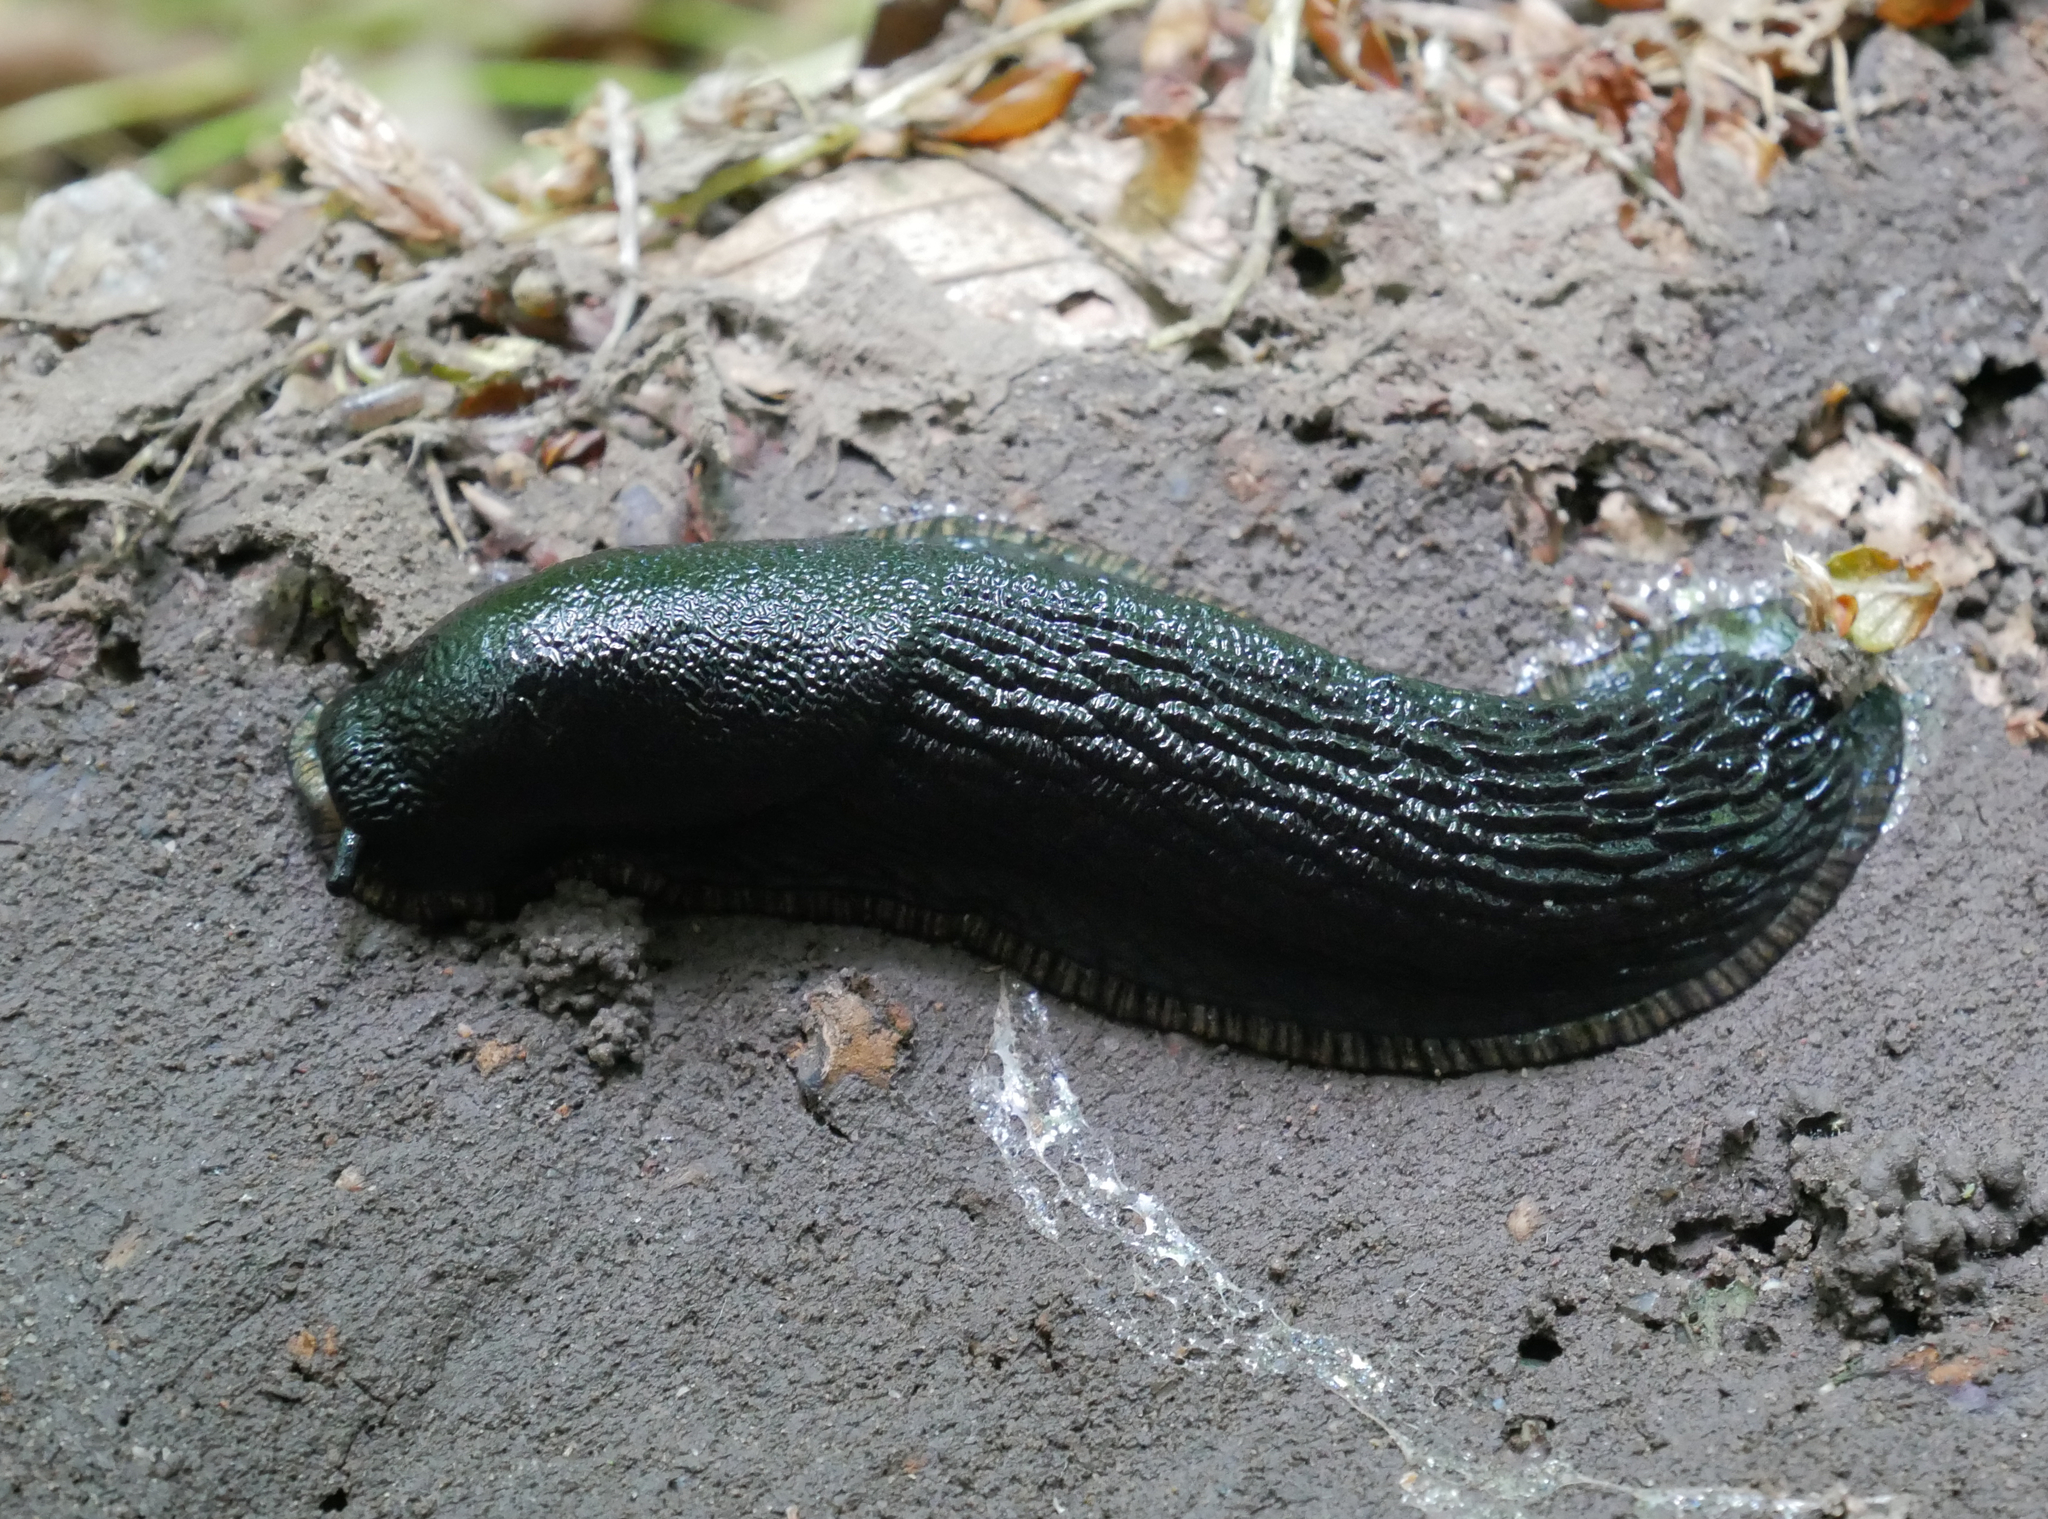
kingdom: Animalia
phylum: Mollusca
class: Gastropoda
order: Stylommatophora
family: Arionidae
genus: Arion
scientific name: Arion ater
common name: Black arion
